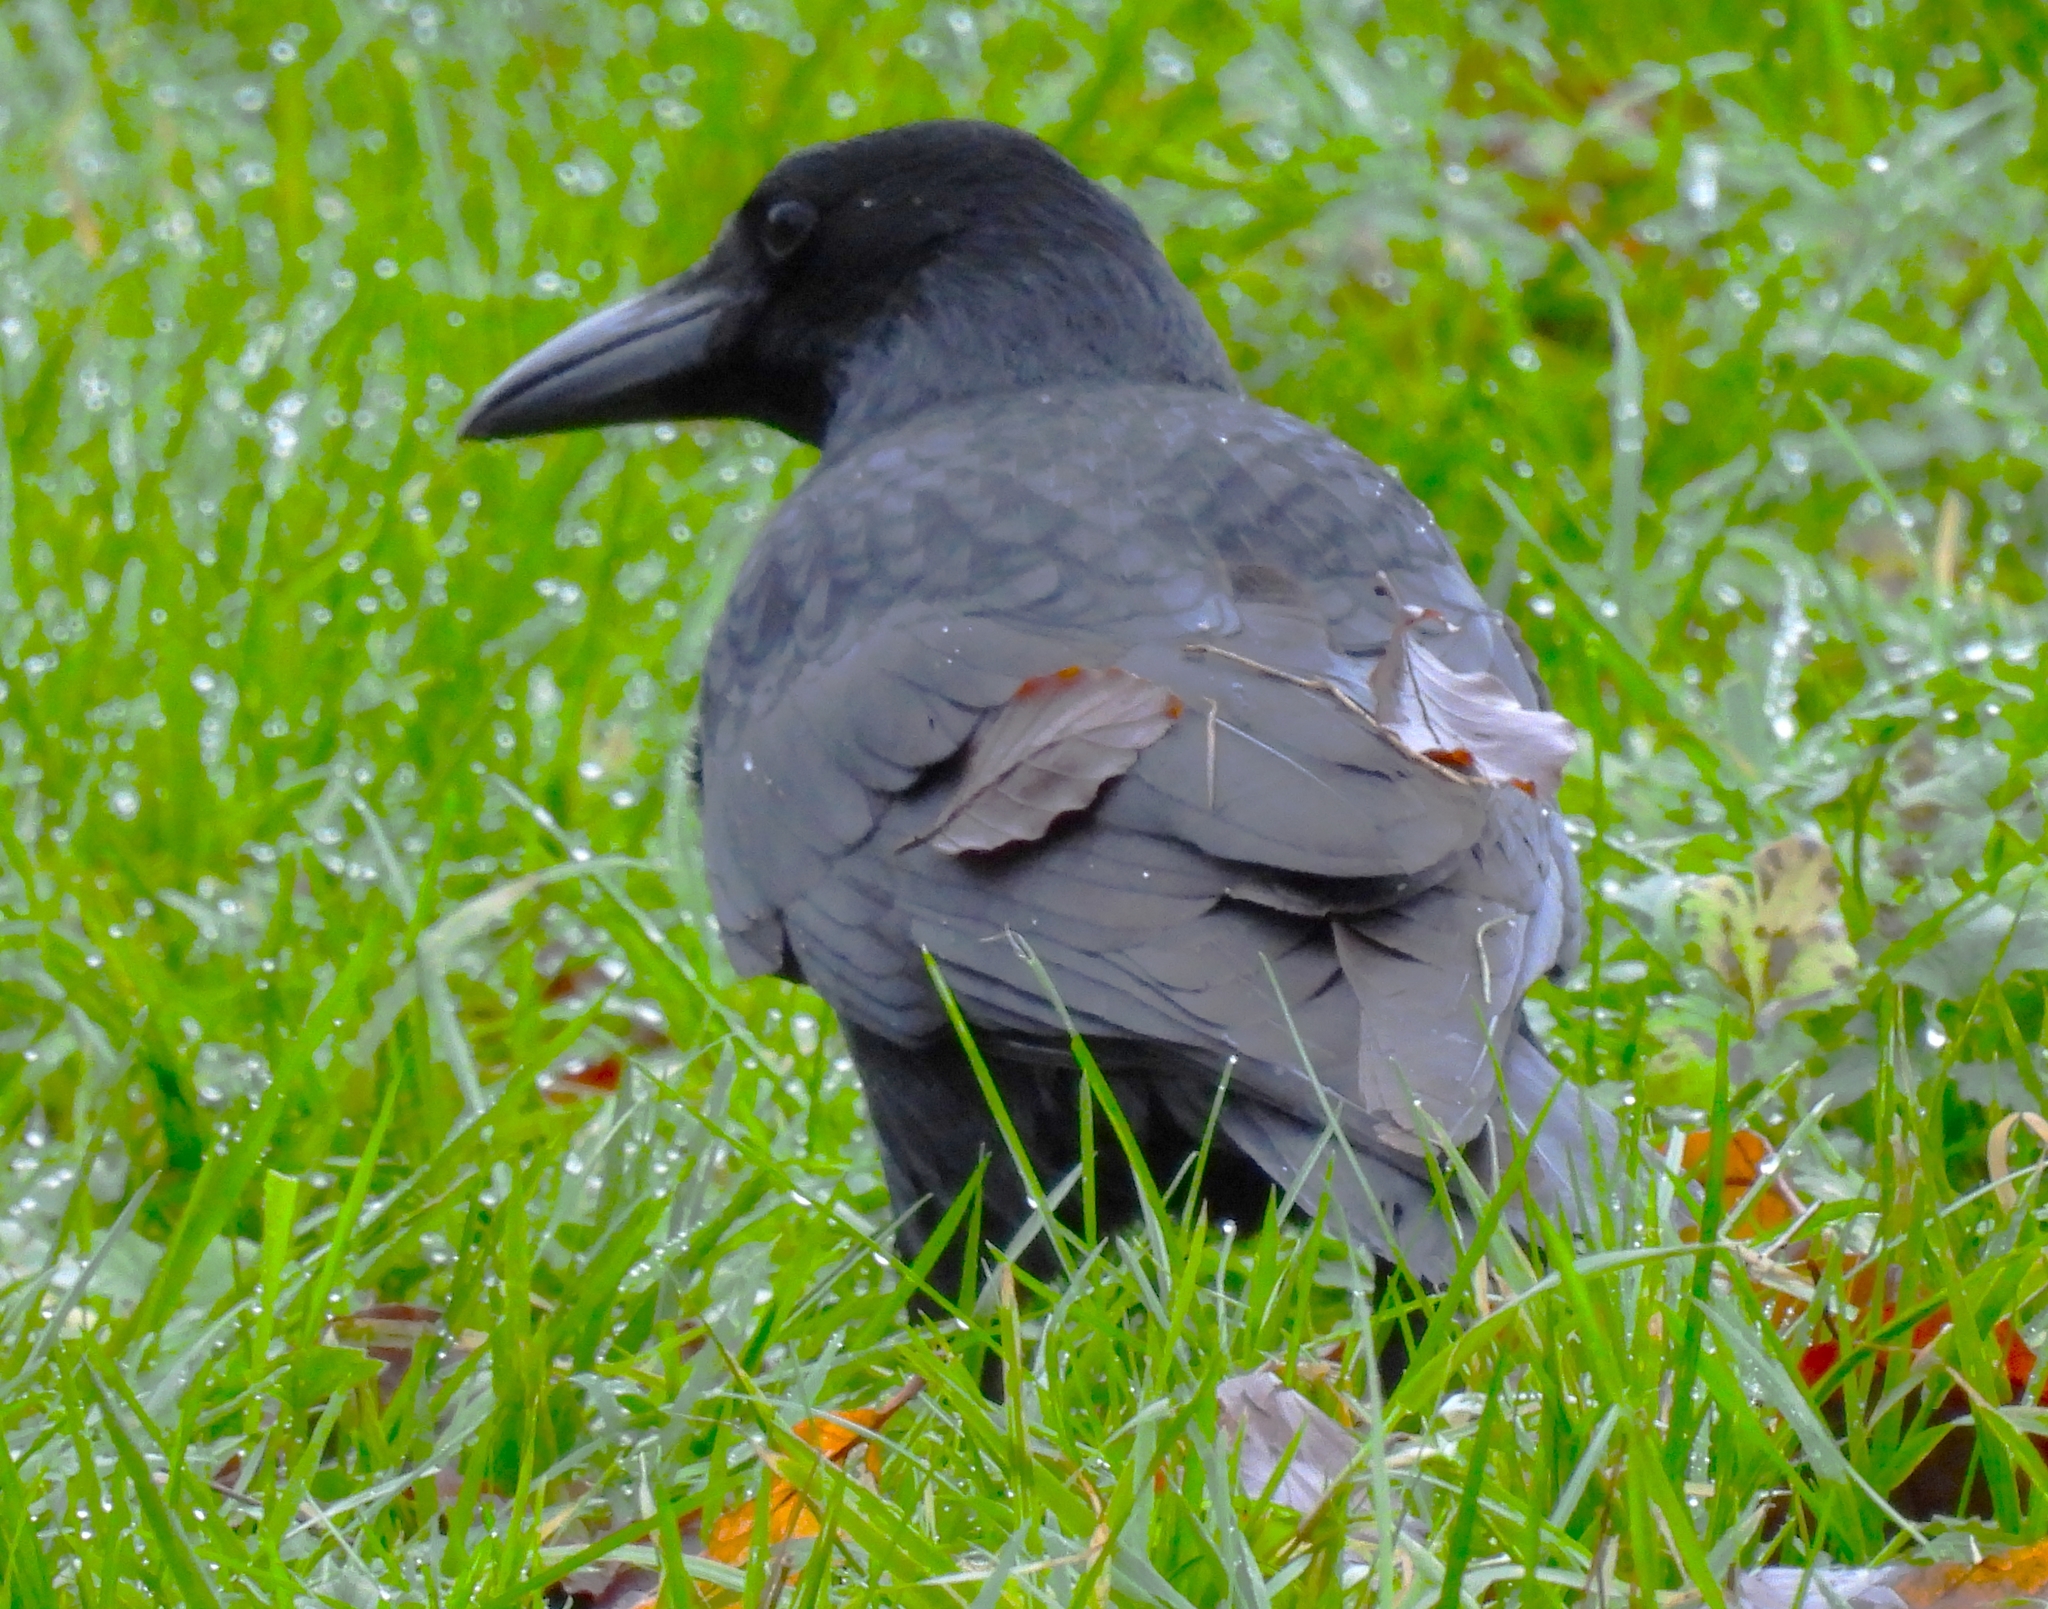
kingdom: Animalia
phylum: Chordata
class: Aves
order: Passeriformes
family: Corvidae
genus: Corvus
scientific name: Corvus corone
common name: Carrion crow
